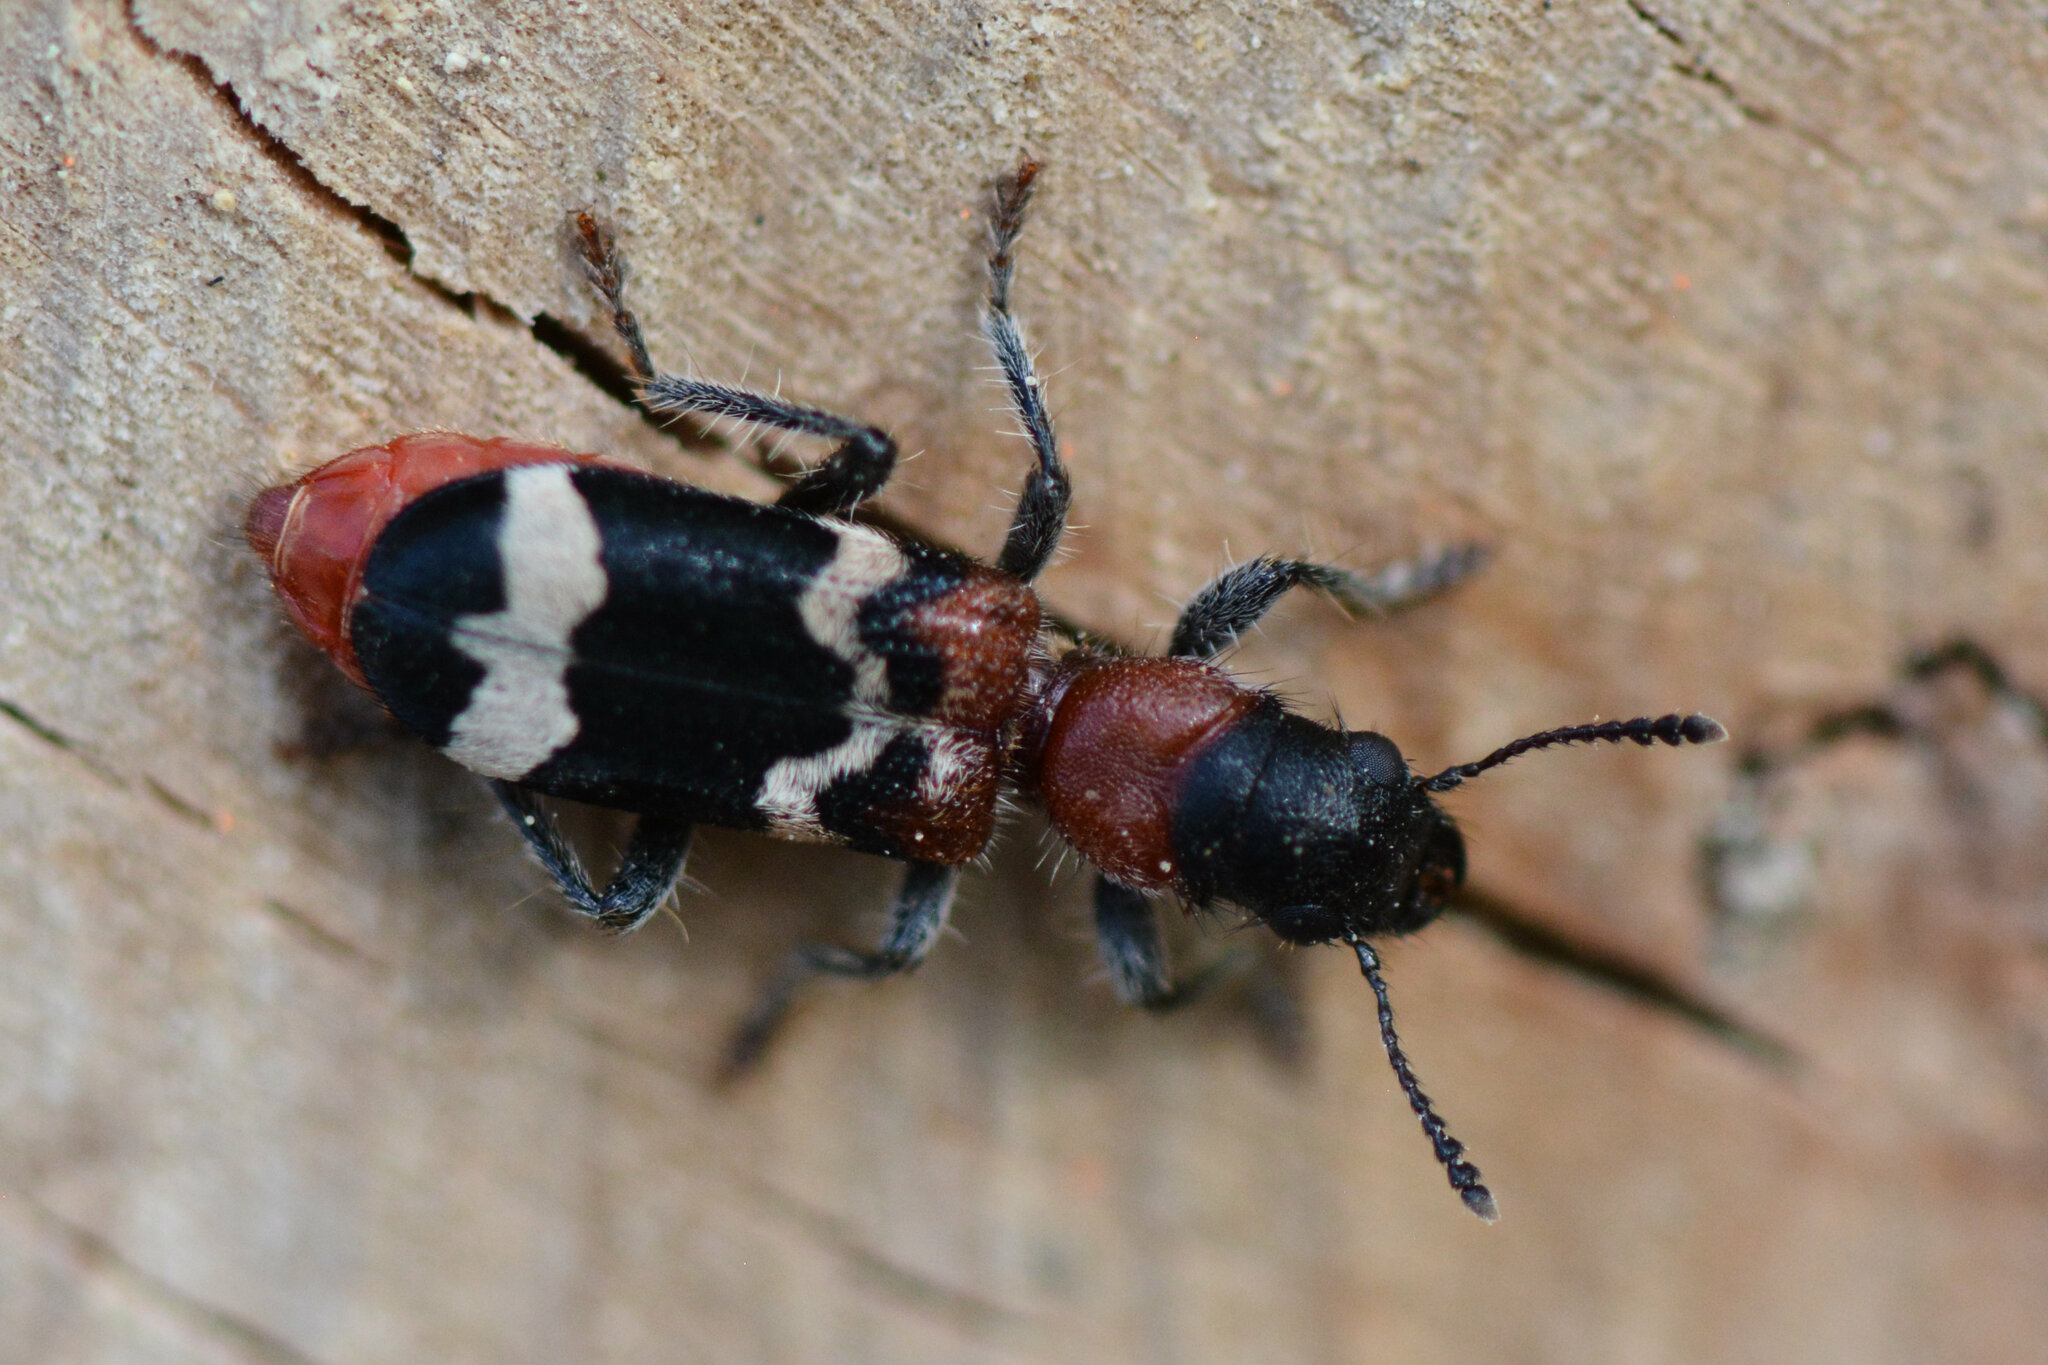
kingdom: Animalia
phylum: Arthropoda
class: Insecta
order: Coleoptera
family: Cleridae
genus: Thanasimus
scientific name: Thanasimus formicarius
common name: Ant beetle
